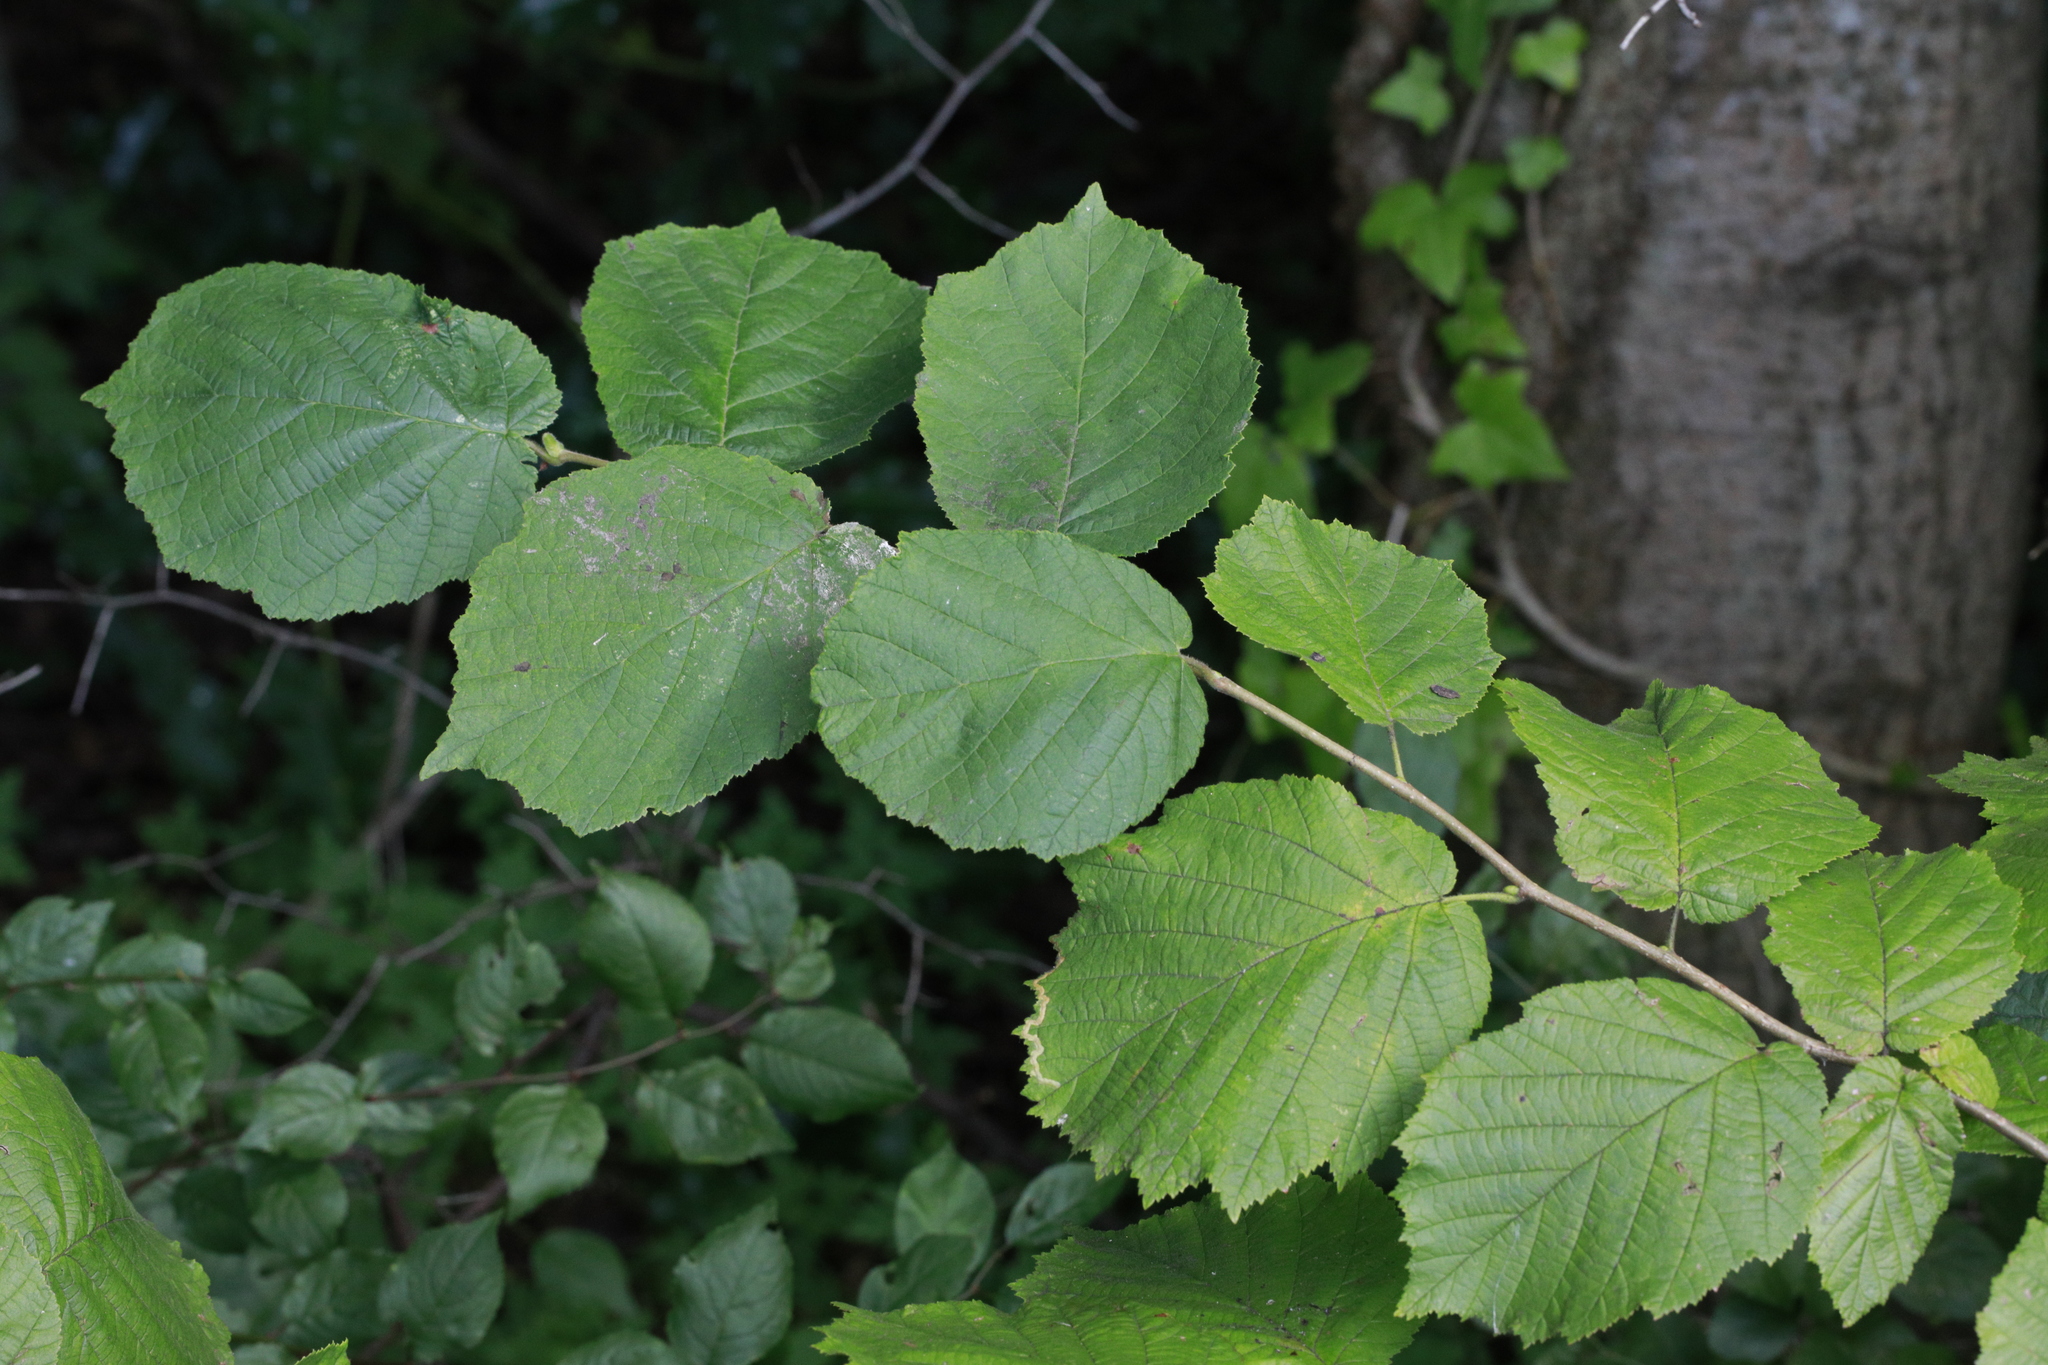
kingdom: Plantae
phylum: Tracheophyta
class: Magnoliopsida
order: Fagales
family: Betulaceae
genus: Corylus
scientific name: Corylus avellana
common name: European hazel
